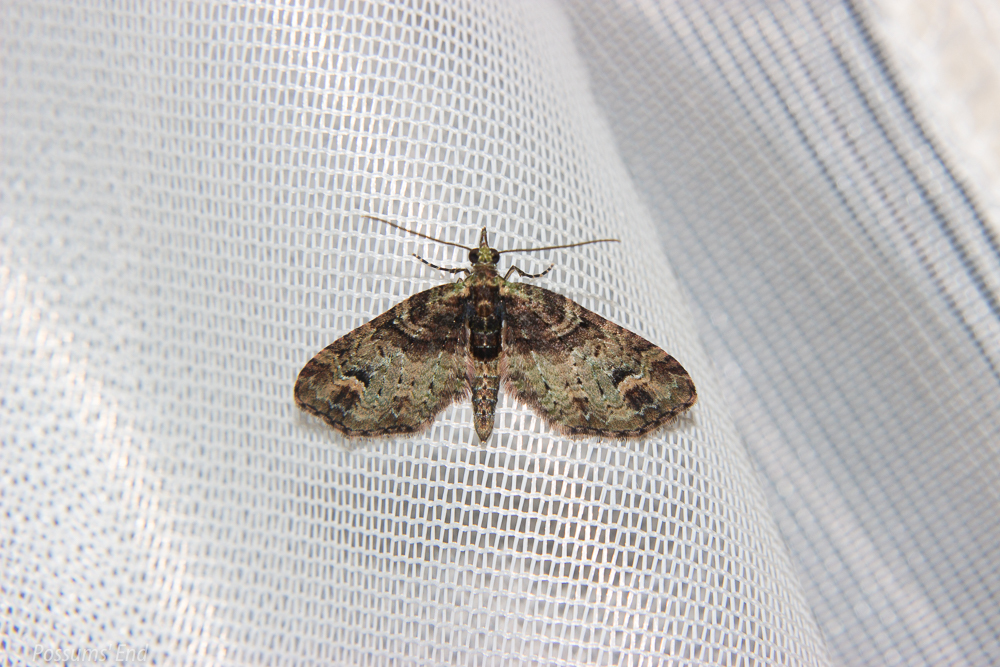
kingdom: Animalia
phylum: Arthropoda
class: Insecta
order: Lepidoptera
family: Geometridae
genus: Idaea
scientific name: Idaea mutanda
